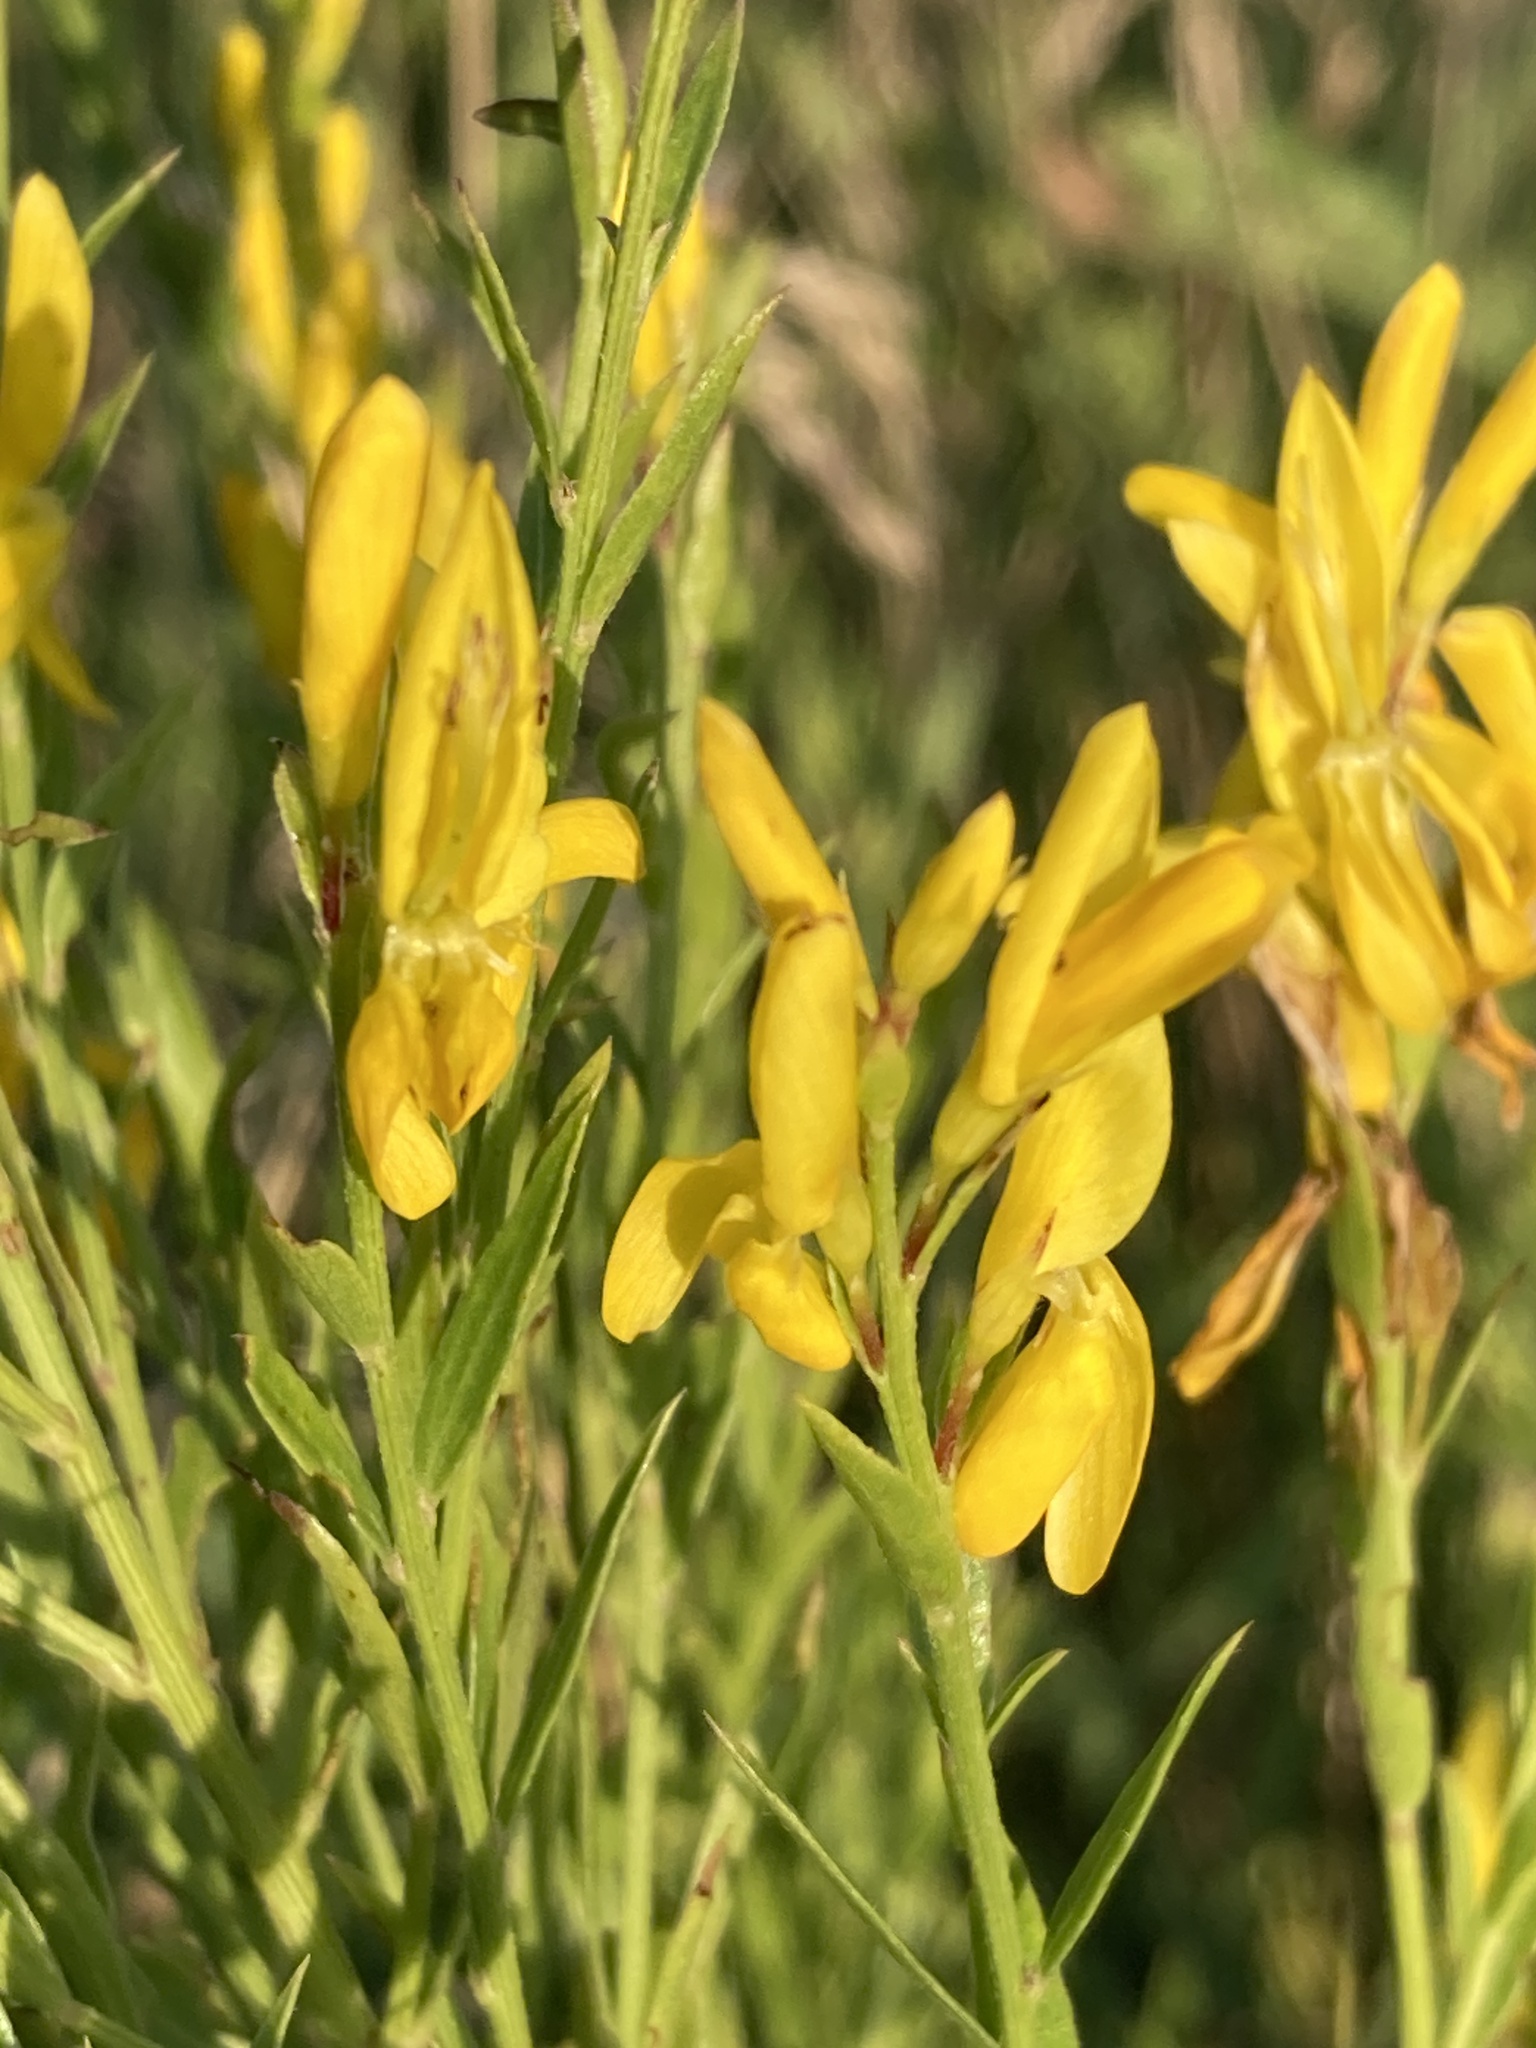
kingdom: Plantae
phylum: Tracheophyta
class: Magnoliopsida
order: Fabales
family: Fabaceae
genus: Genista
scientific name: Genista tinctoria
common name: Dyer's greenweed
